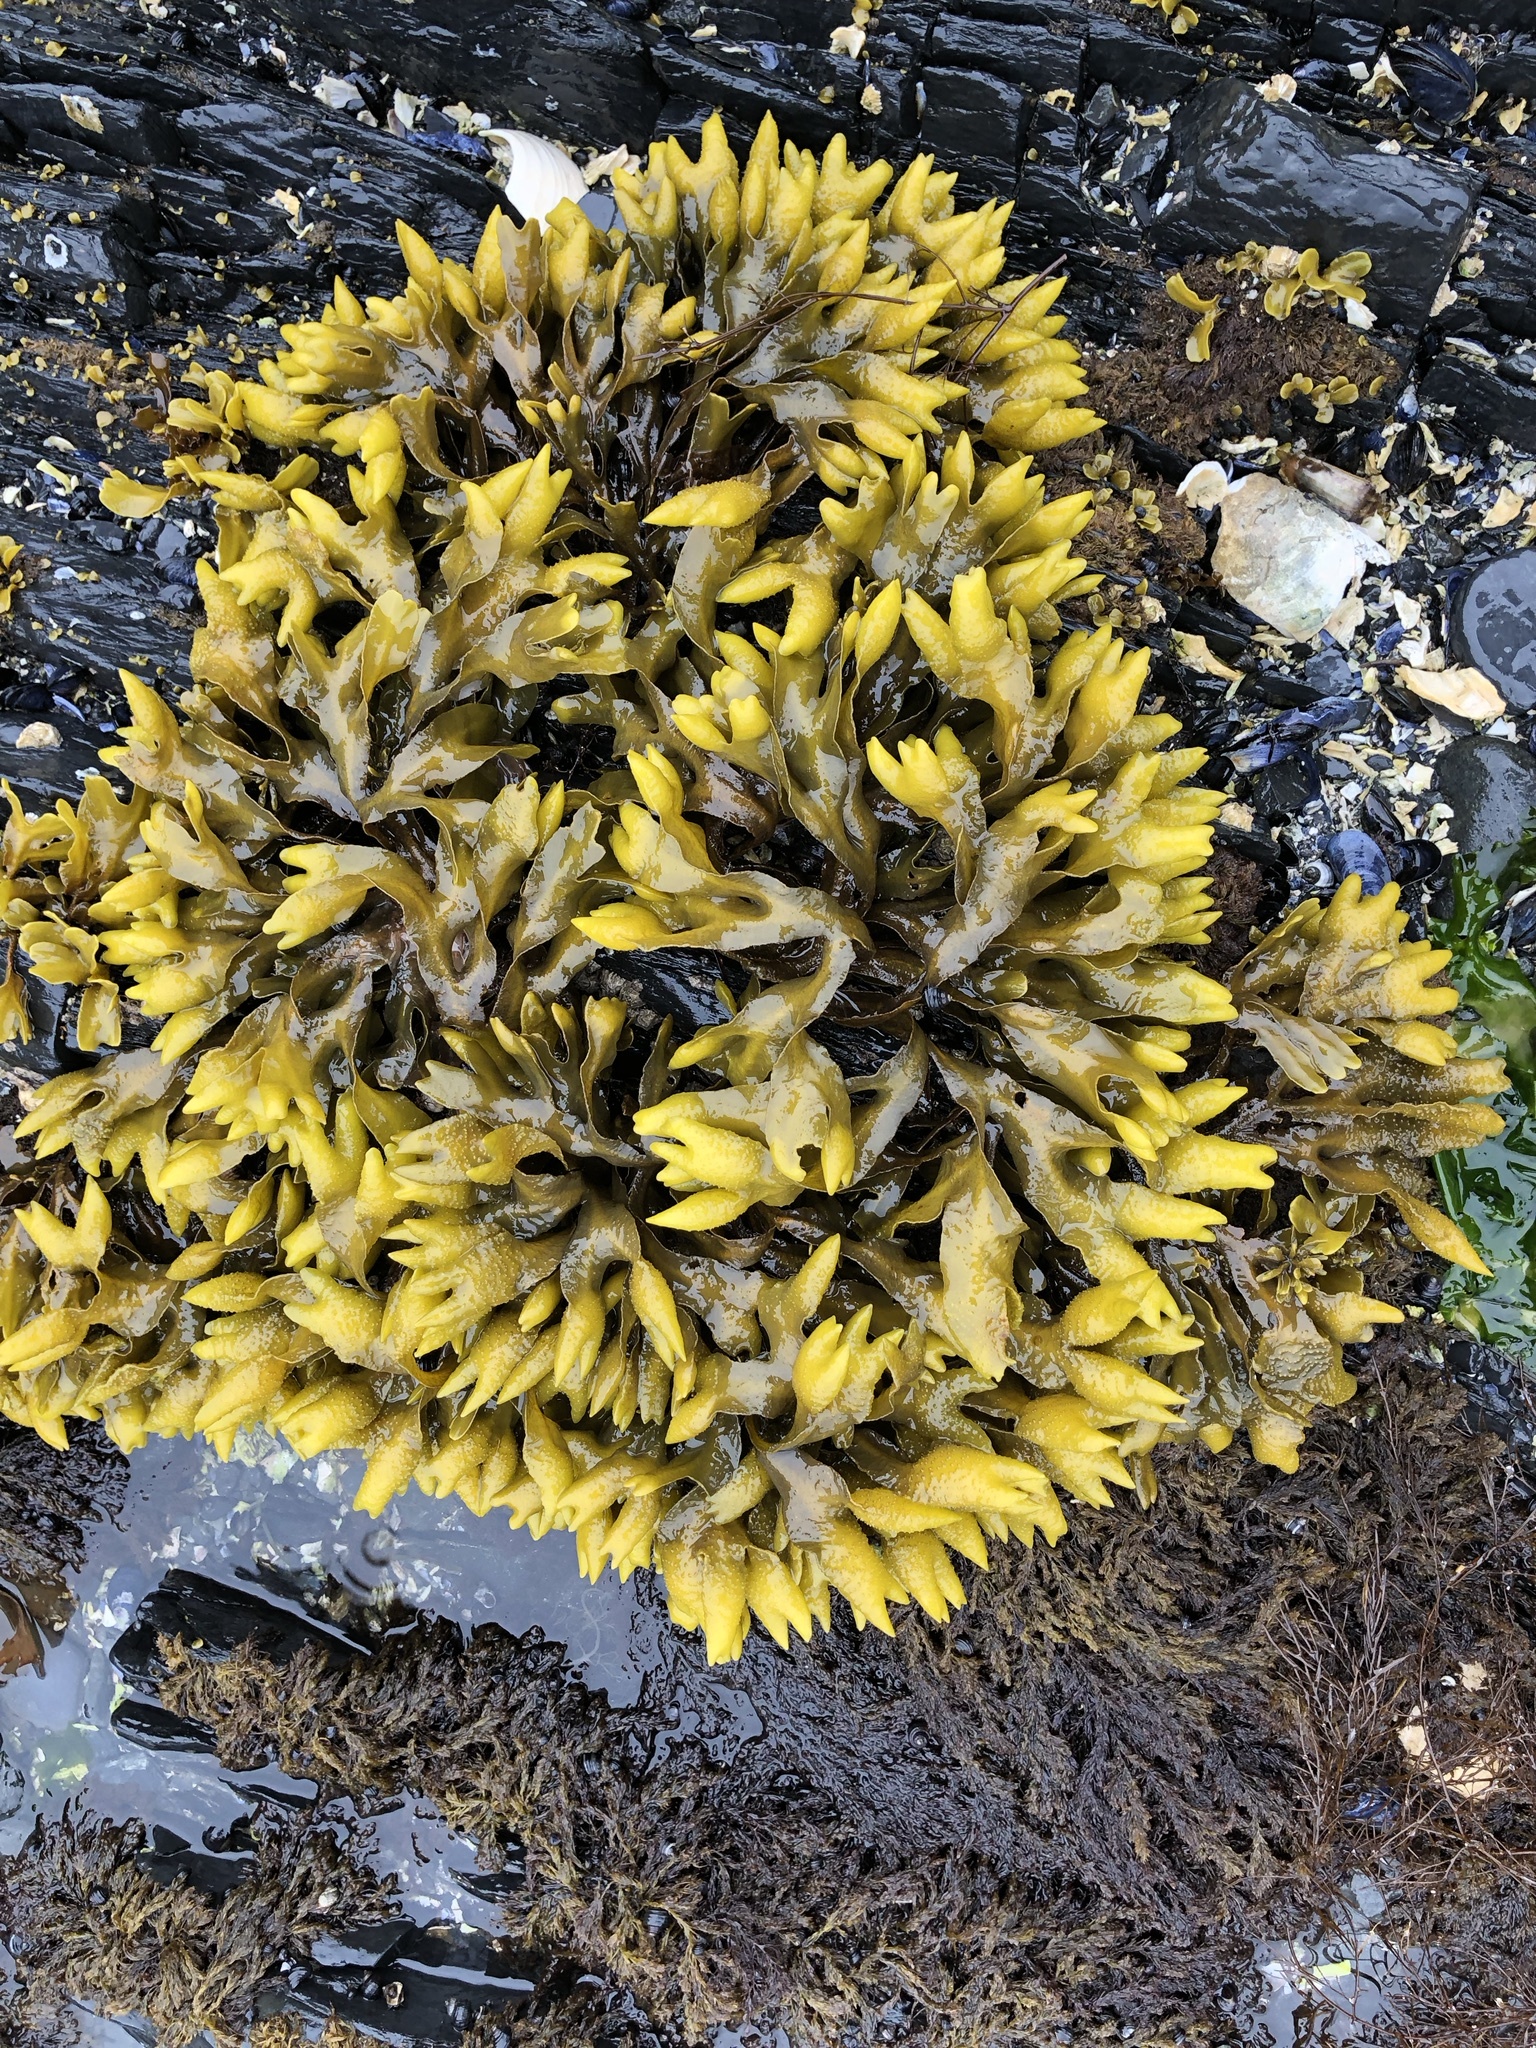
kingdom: Chromista
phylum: Ochrophyta
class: Phaeophyceae
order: Fucales
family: Fucaceae
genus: Fucus
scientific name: Fucus distichus
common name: Rockweed
